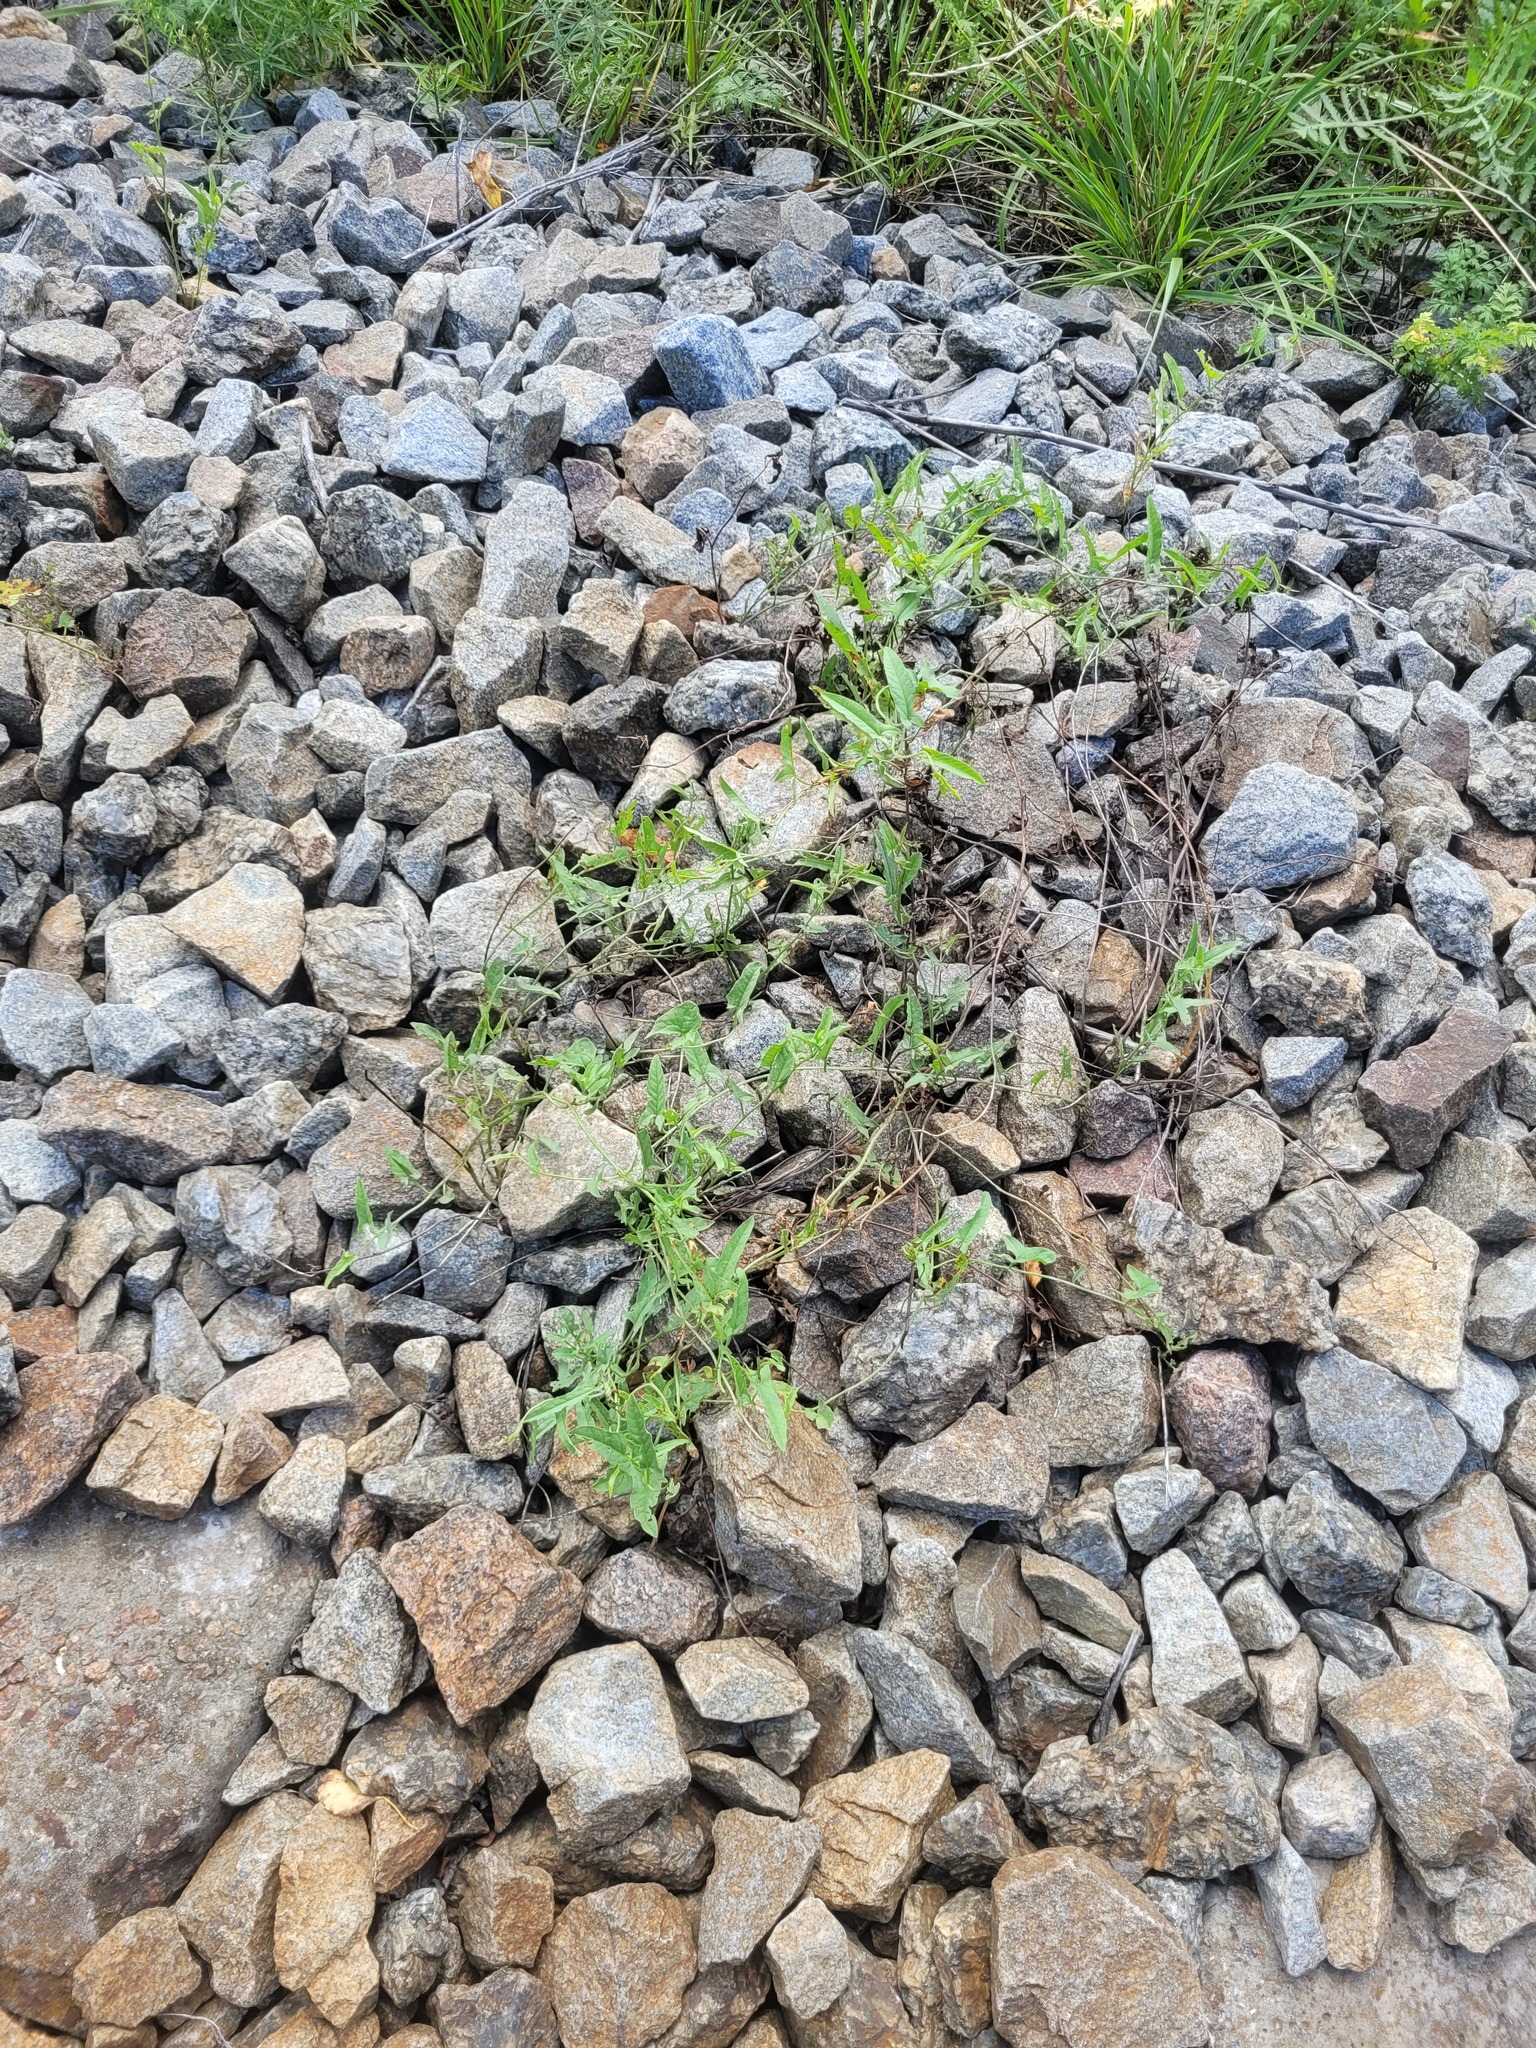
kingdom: Plantae
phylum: Tracheophyta
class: Magnoliopsida
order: Solanales
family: Convolvulaceae
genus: Convolvulus
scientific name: Convolvulus arvensis
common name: Field bindweed
